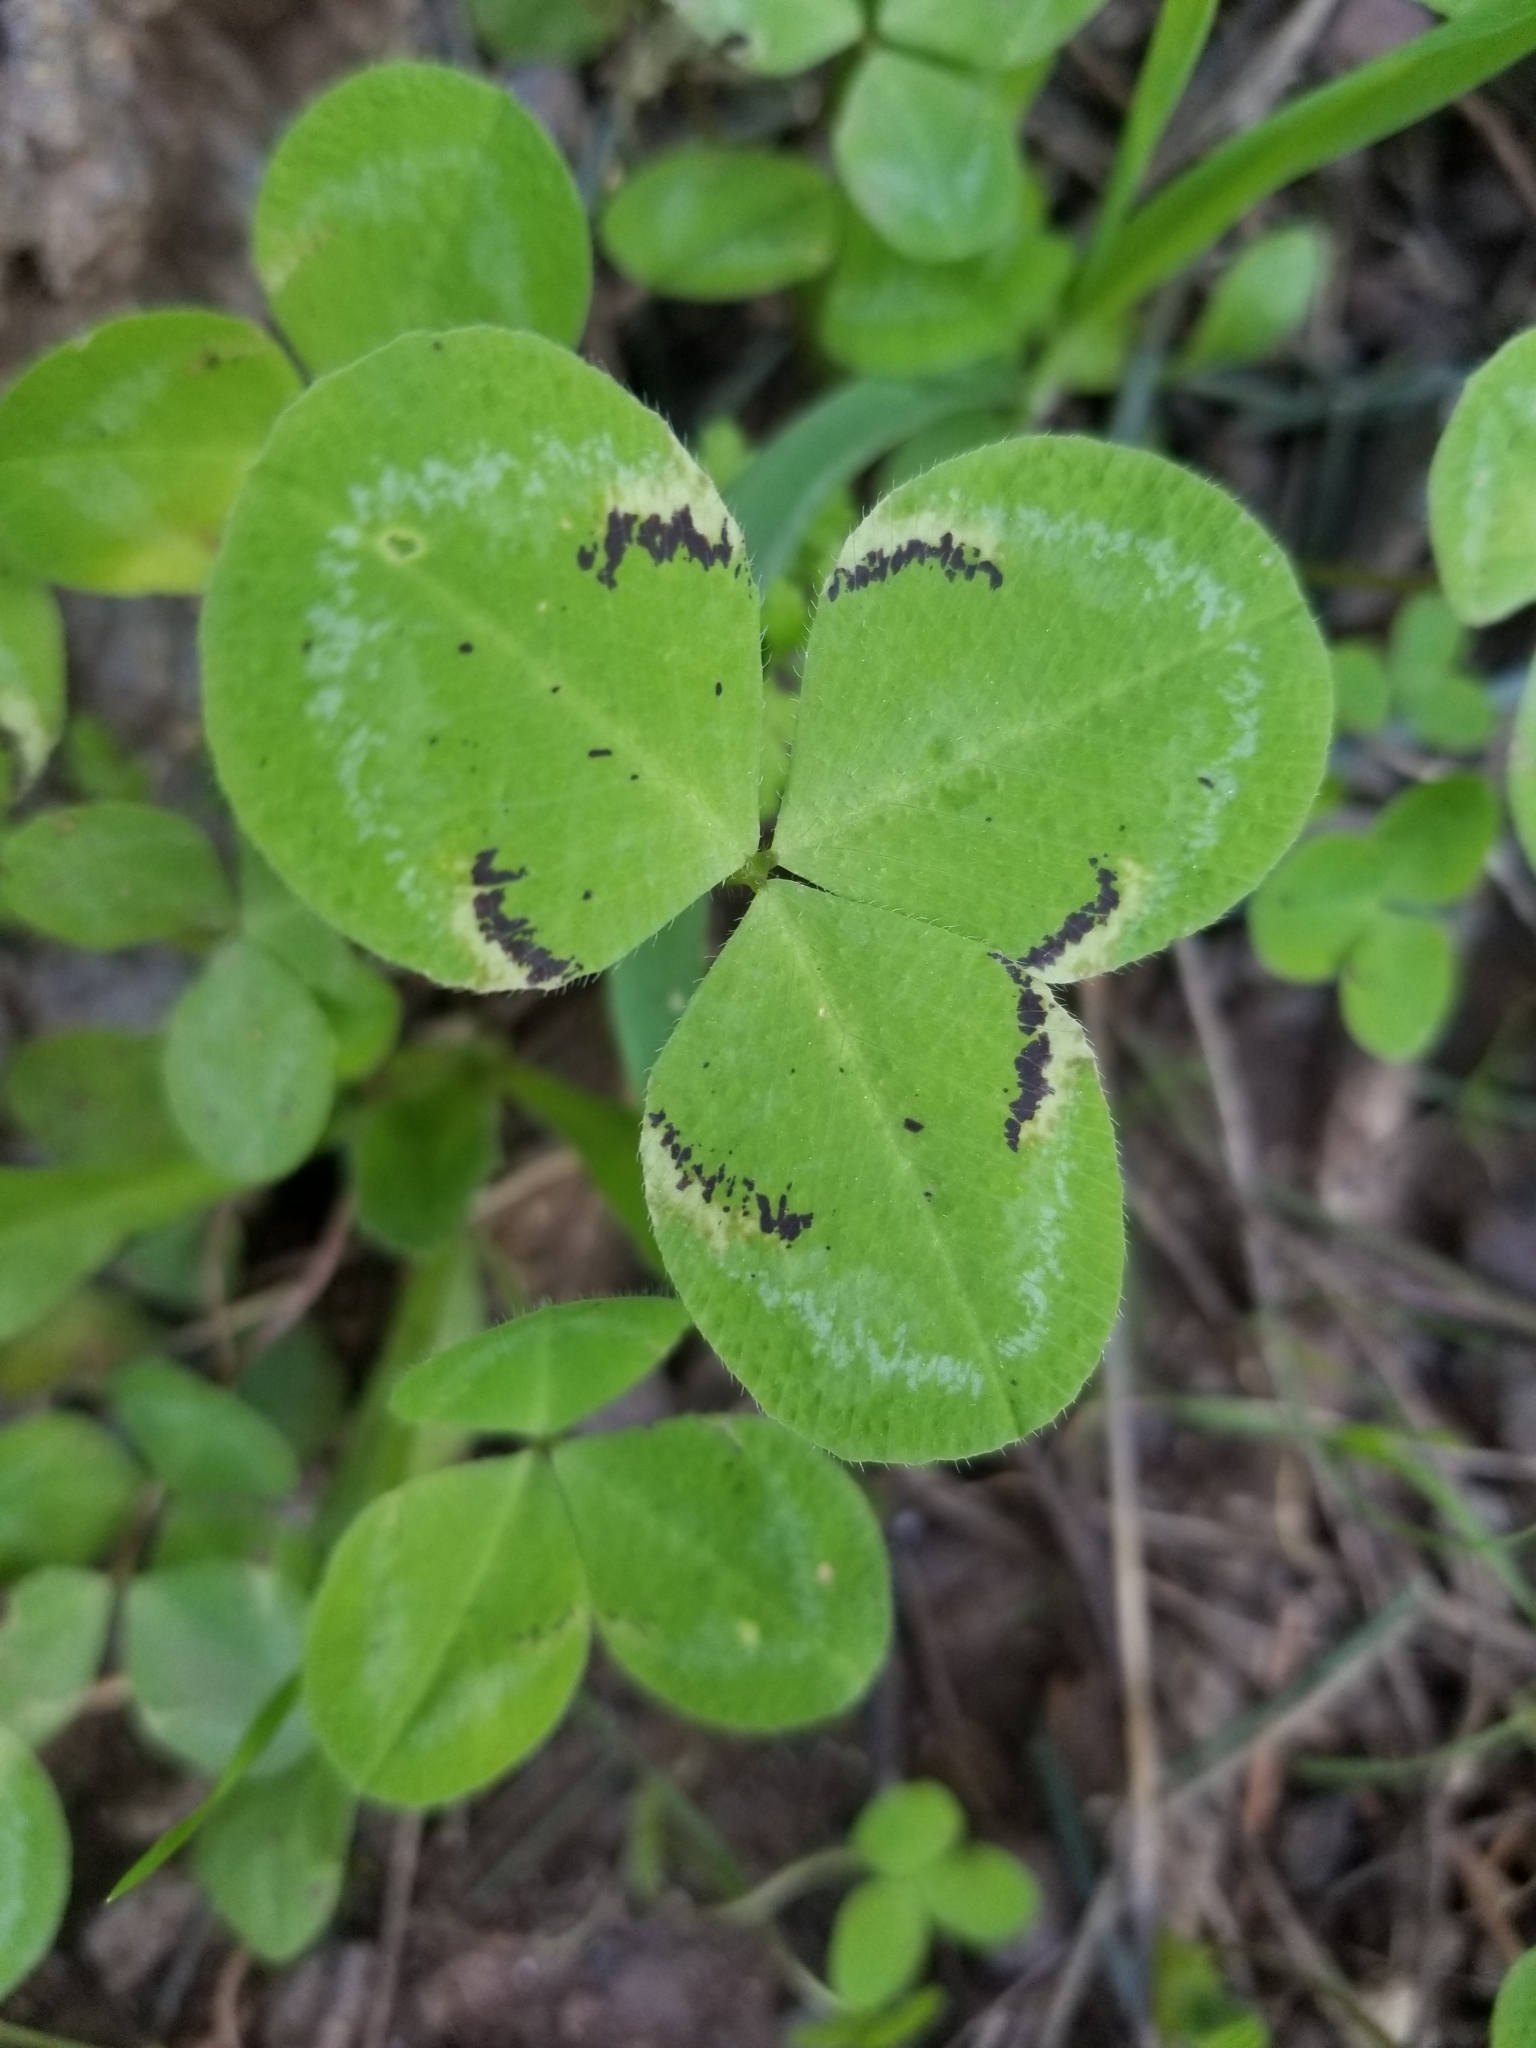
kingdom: Plantae
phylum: Tracheophyta
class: Magnoliopsida
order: Fabales
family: Fabaceae
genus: Trifolium
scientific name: Trifolium clypeatum
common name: Shield clover
